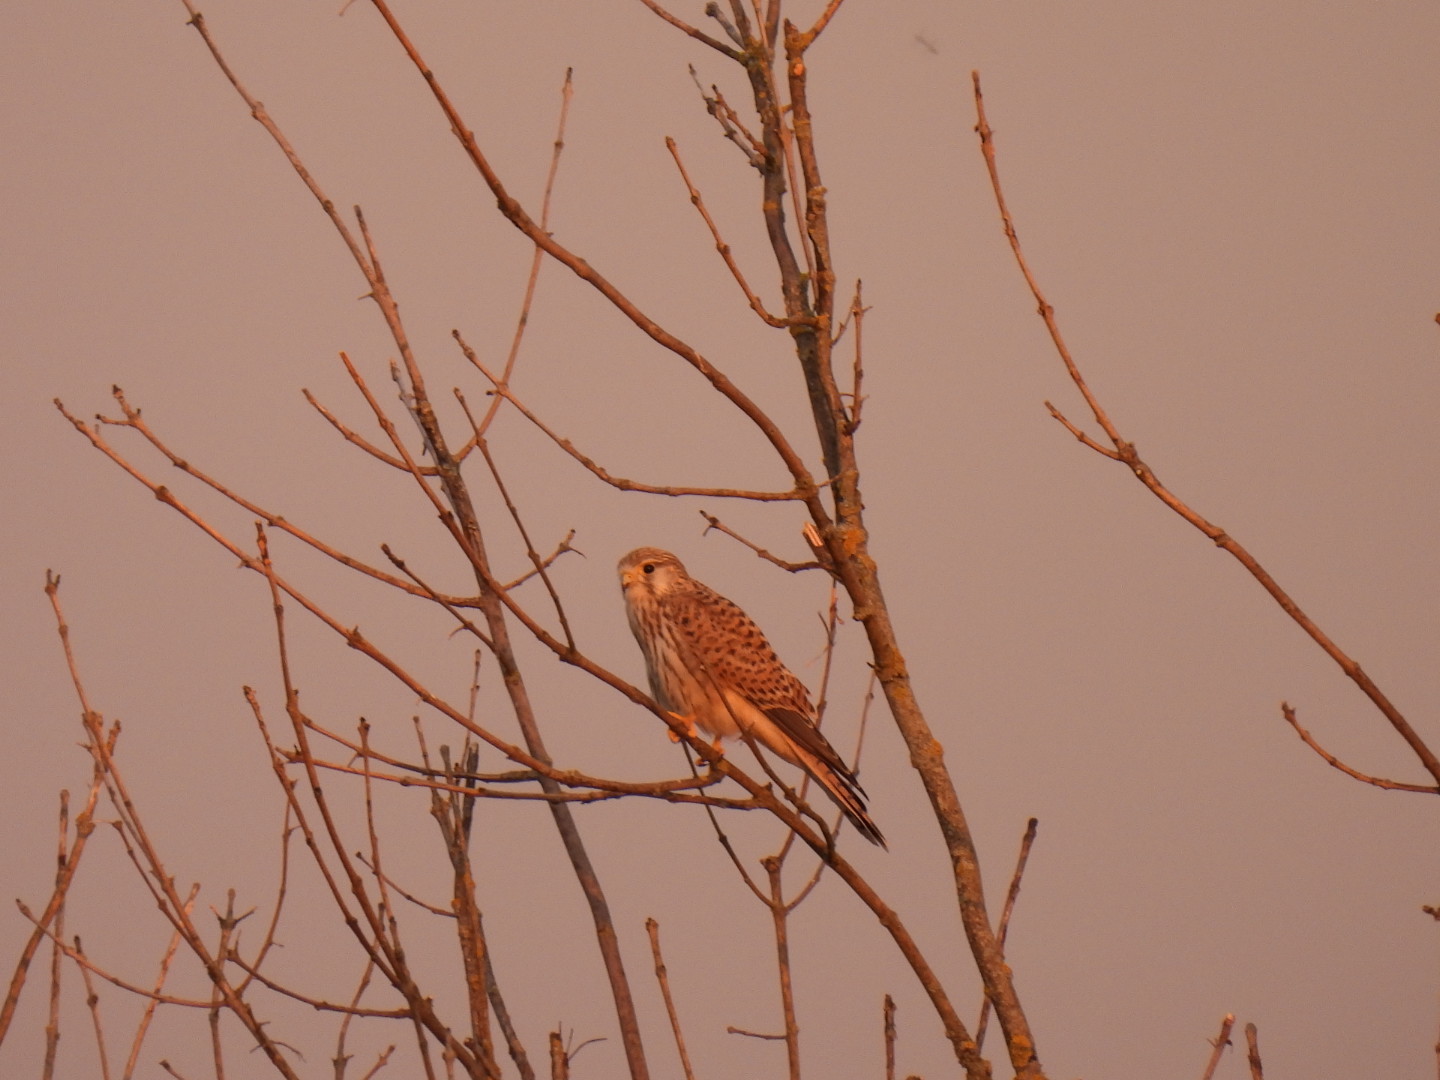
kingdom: Animalia
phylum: Chordata
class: Aves
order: Falconiformes
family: Falconidae
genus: Falco
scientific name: Falco tinnunculus
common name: Common kestrel
